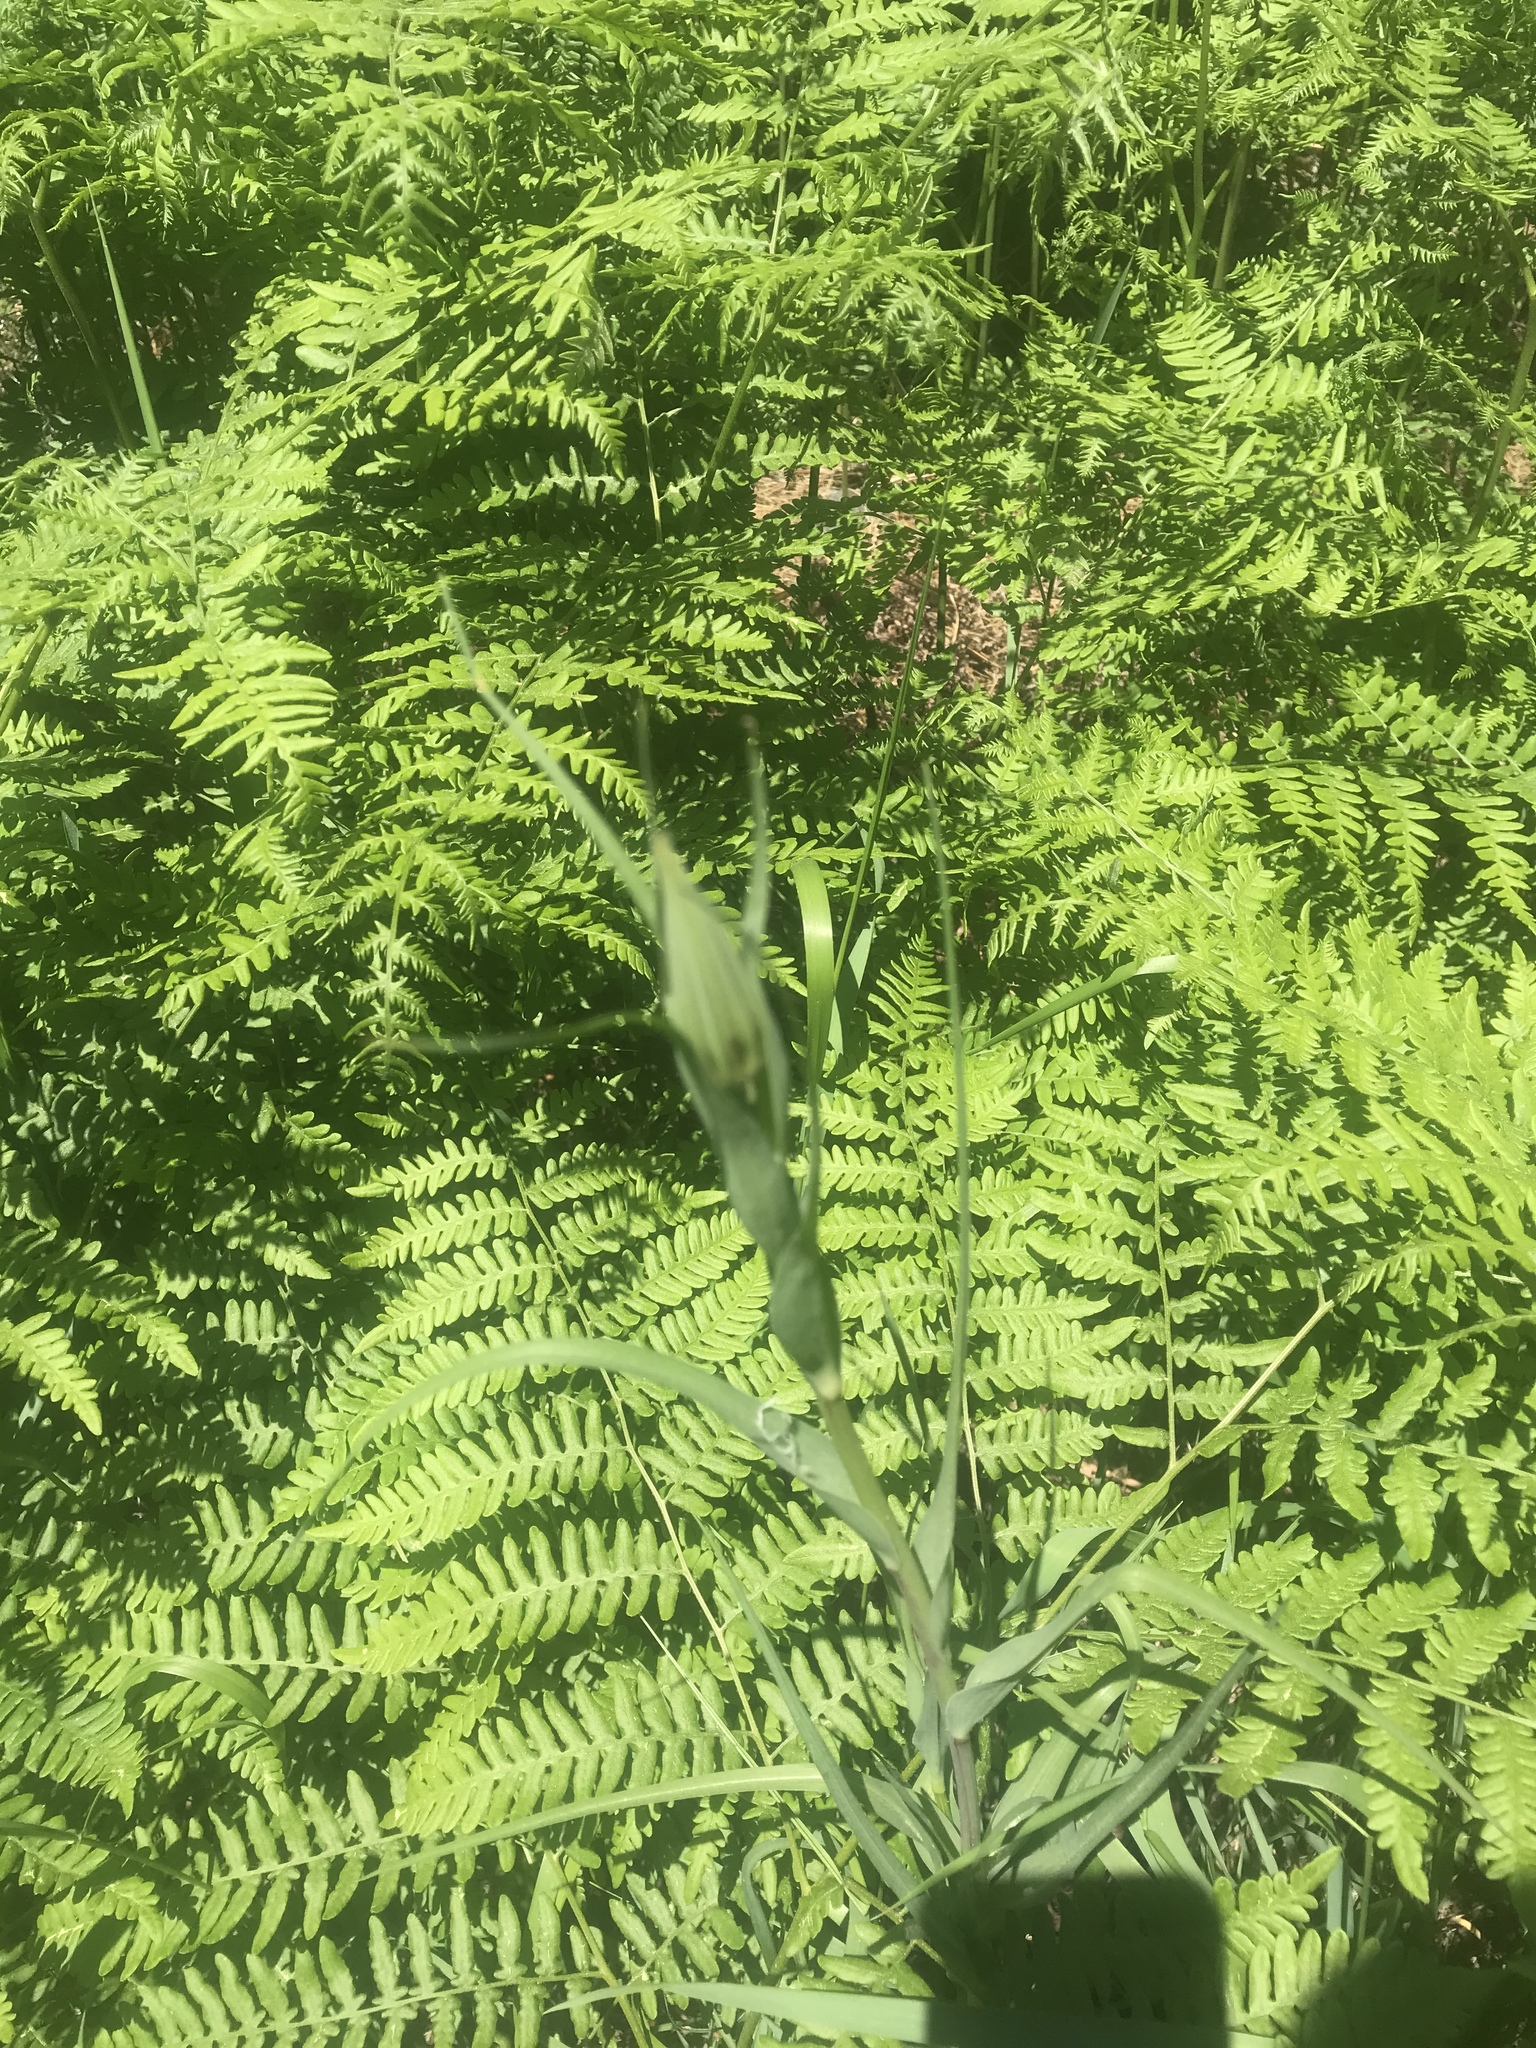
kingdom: Plantae
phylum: Tracheophyta
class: Magnoliopsida
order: Asterales
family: Asteraceae
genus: Tragopogon
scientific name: Tragopogon dubius
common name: Yellow salsify
